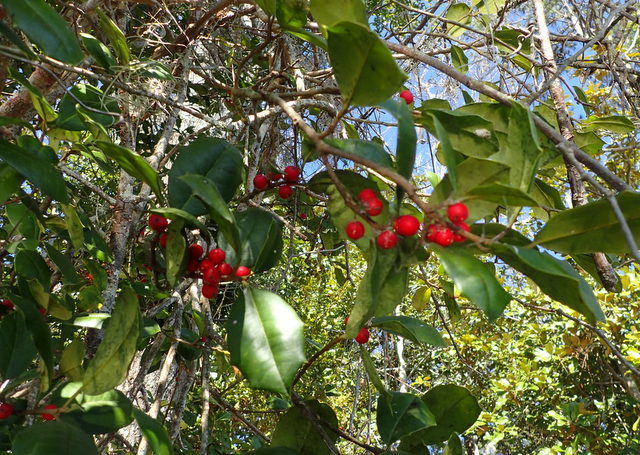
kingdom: Plantae
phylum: Tracheophyta
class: Magnoliopsida
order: Aquifoliales
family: Aquifoliaceae
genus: Ilex
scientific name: Ilex opaca
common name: American holly
